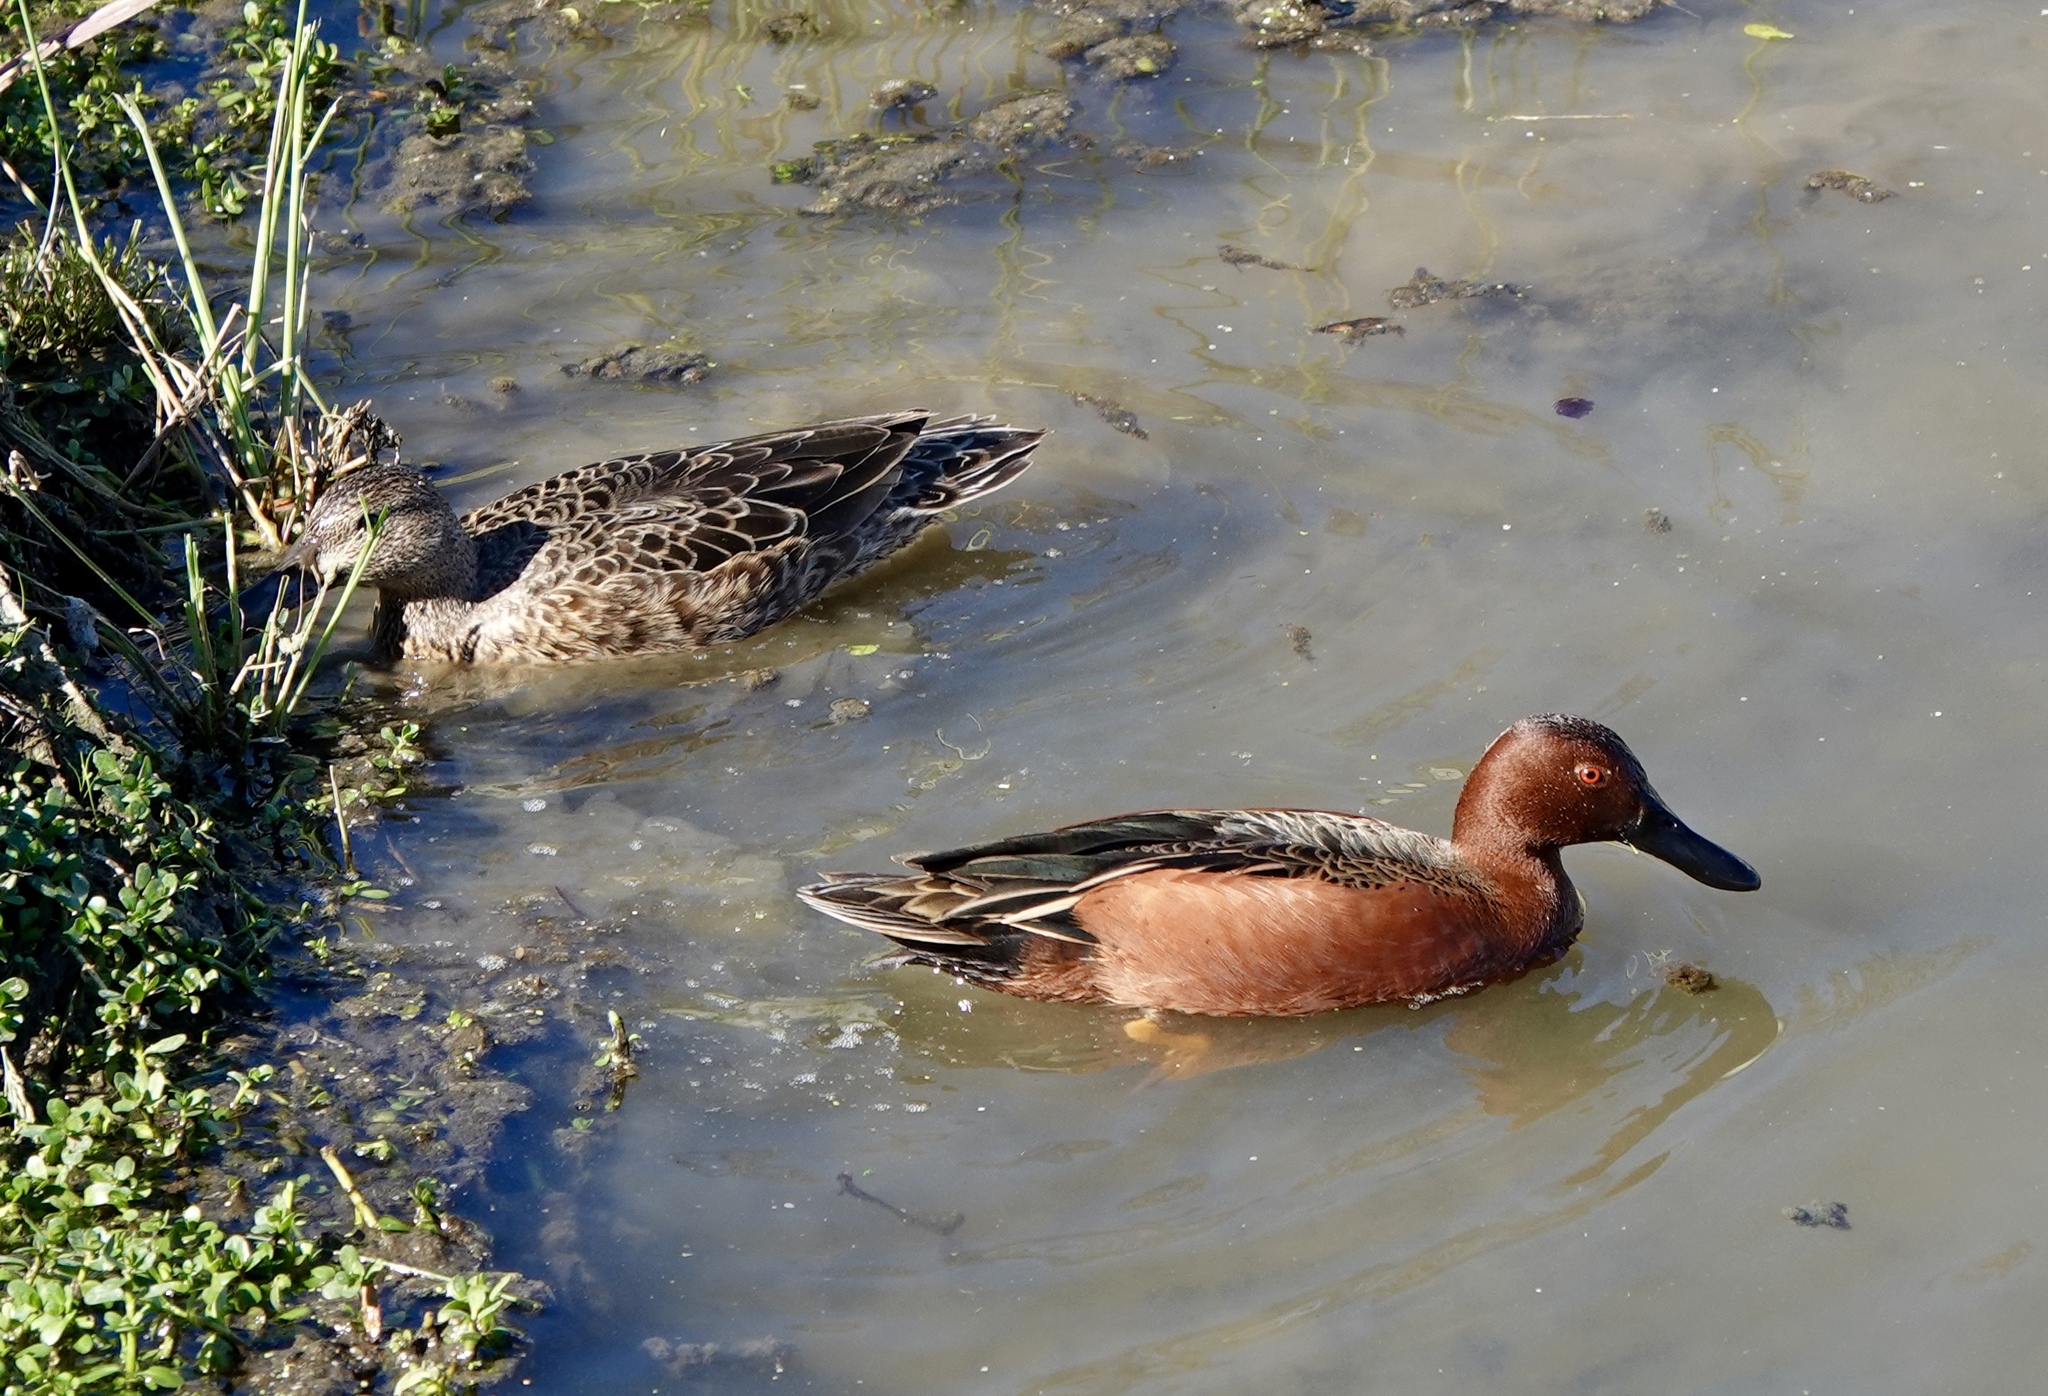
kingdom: Animalia
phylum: Chordata
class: Aves
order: Anseriformes
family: Anatidae
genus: Spatula
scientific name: Spatula cyanoptera
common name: Cinnamon teal
